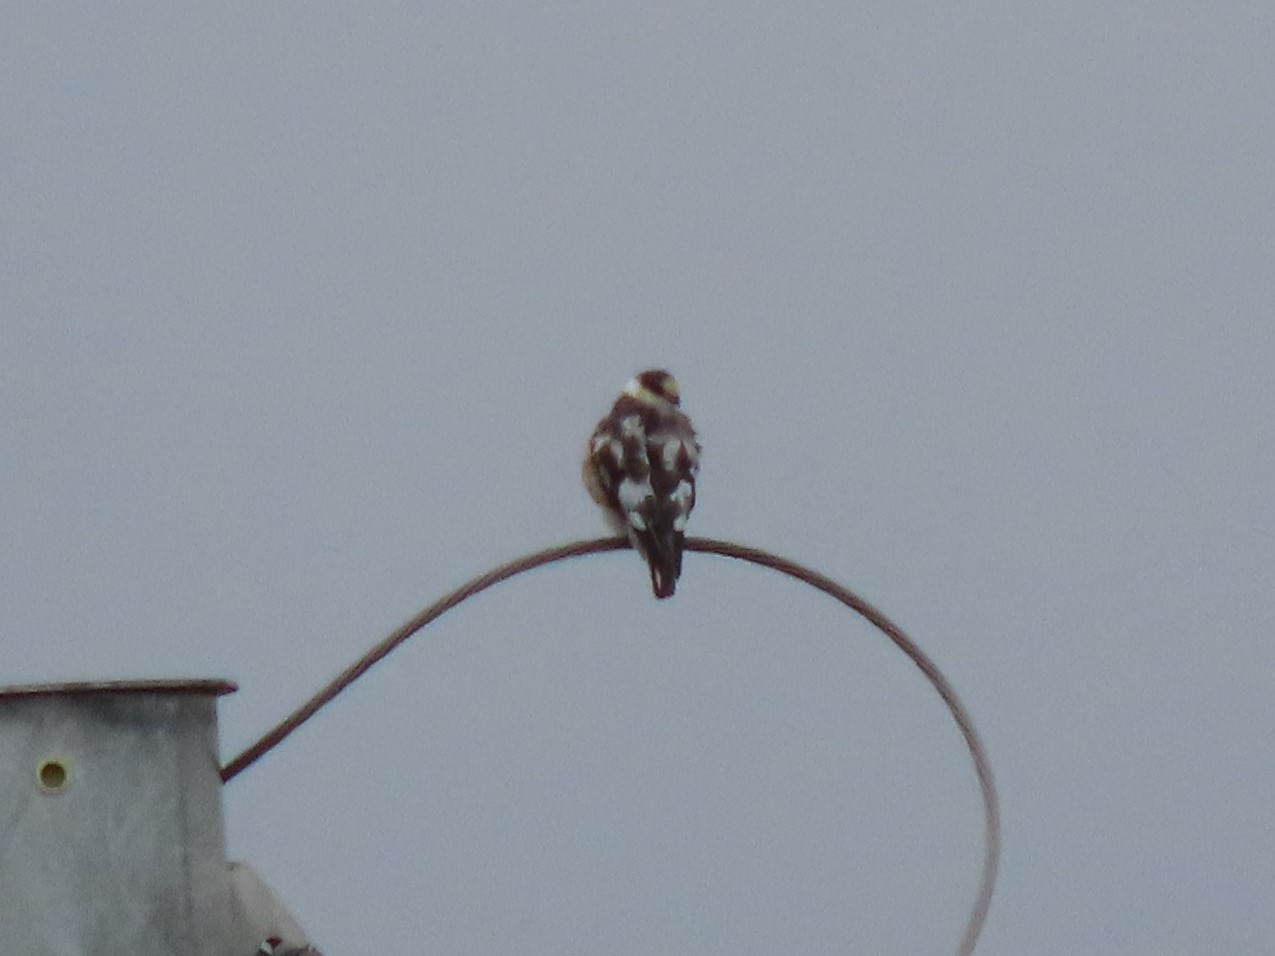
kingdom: Animalia
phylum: Chordata
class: Aves
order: Accipitriformes
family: Accipitridae
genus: Gampsonyx
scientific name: Gampsonyx swainsonii
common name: Pearl kite
